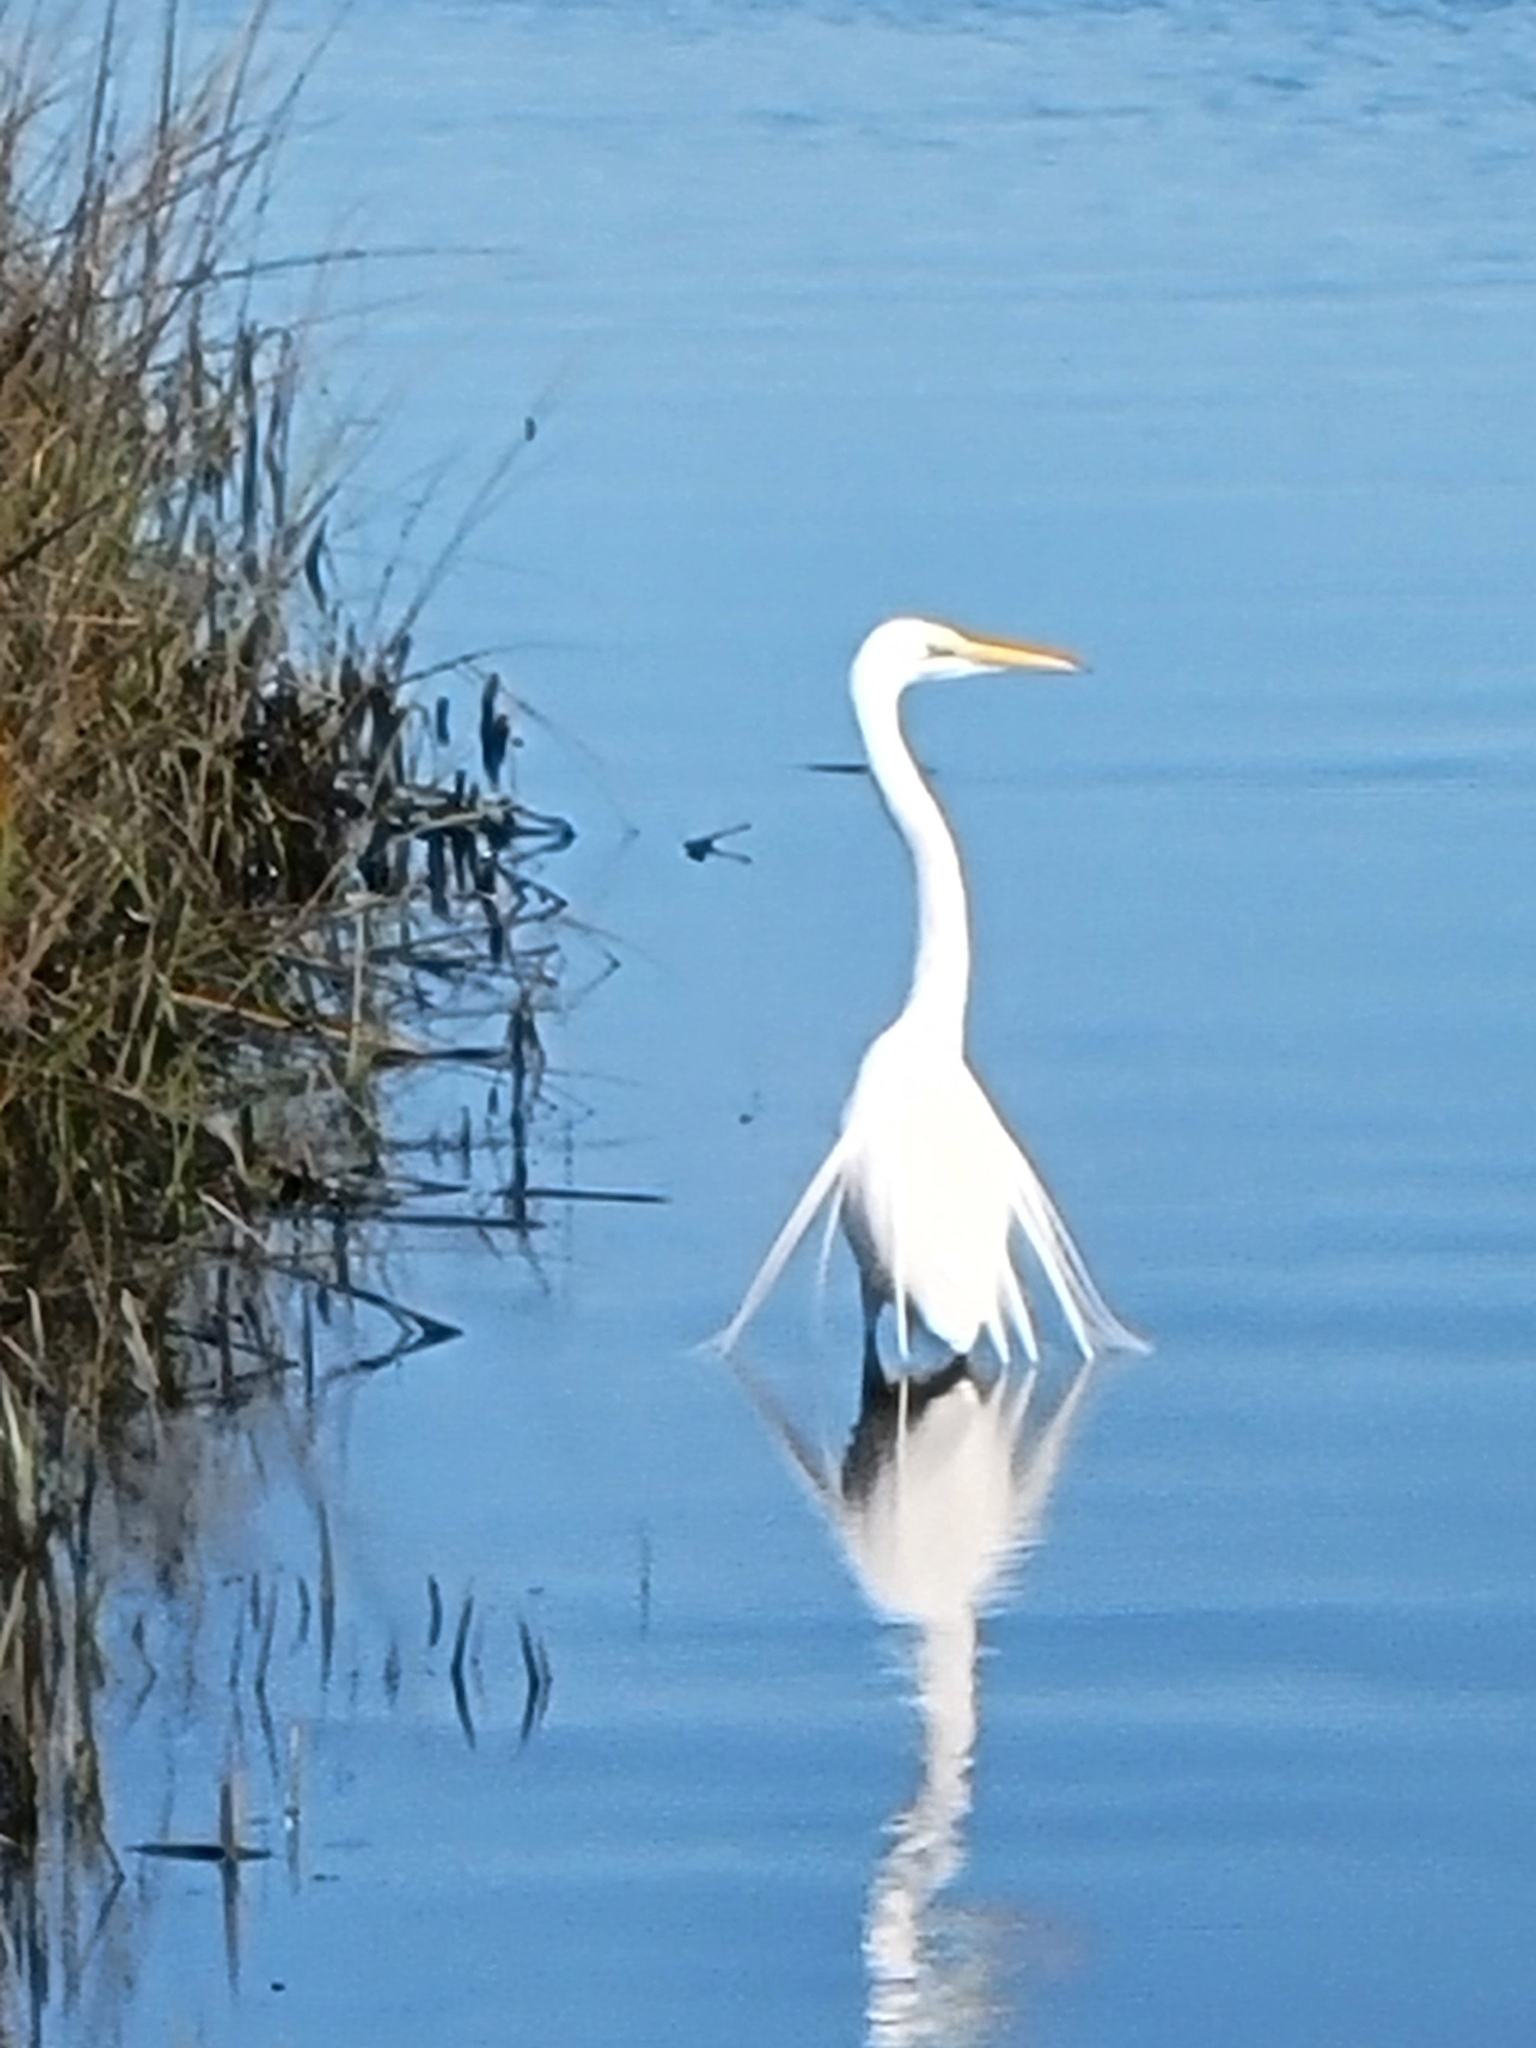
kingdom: Animalia
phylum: Chordata
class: Aves
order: Pelecaniformes
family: Ardeidae
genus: Ardea
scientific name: Ardea alba
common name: Great egret
